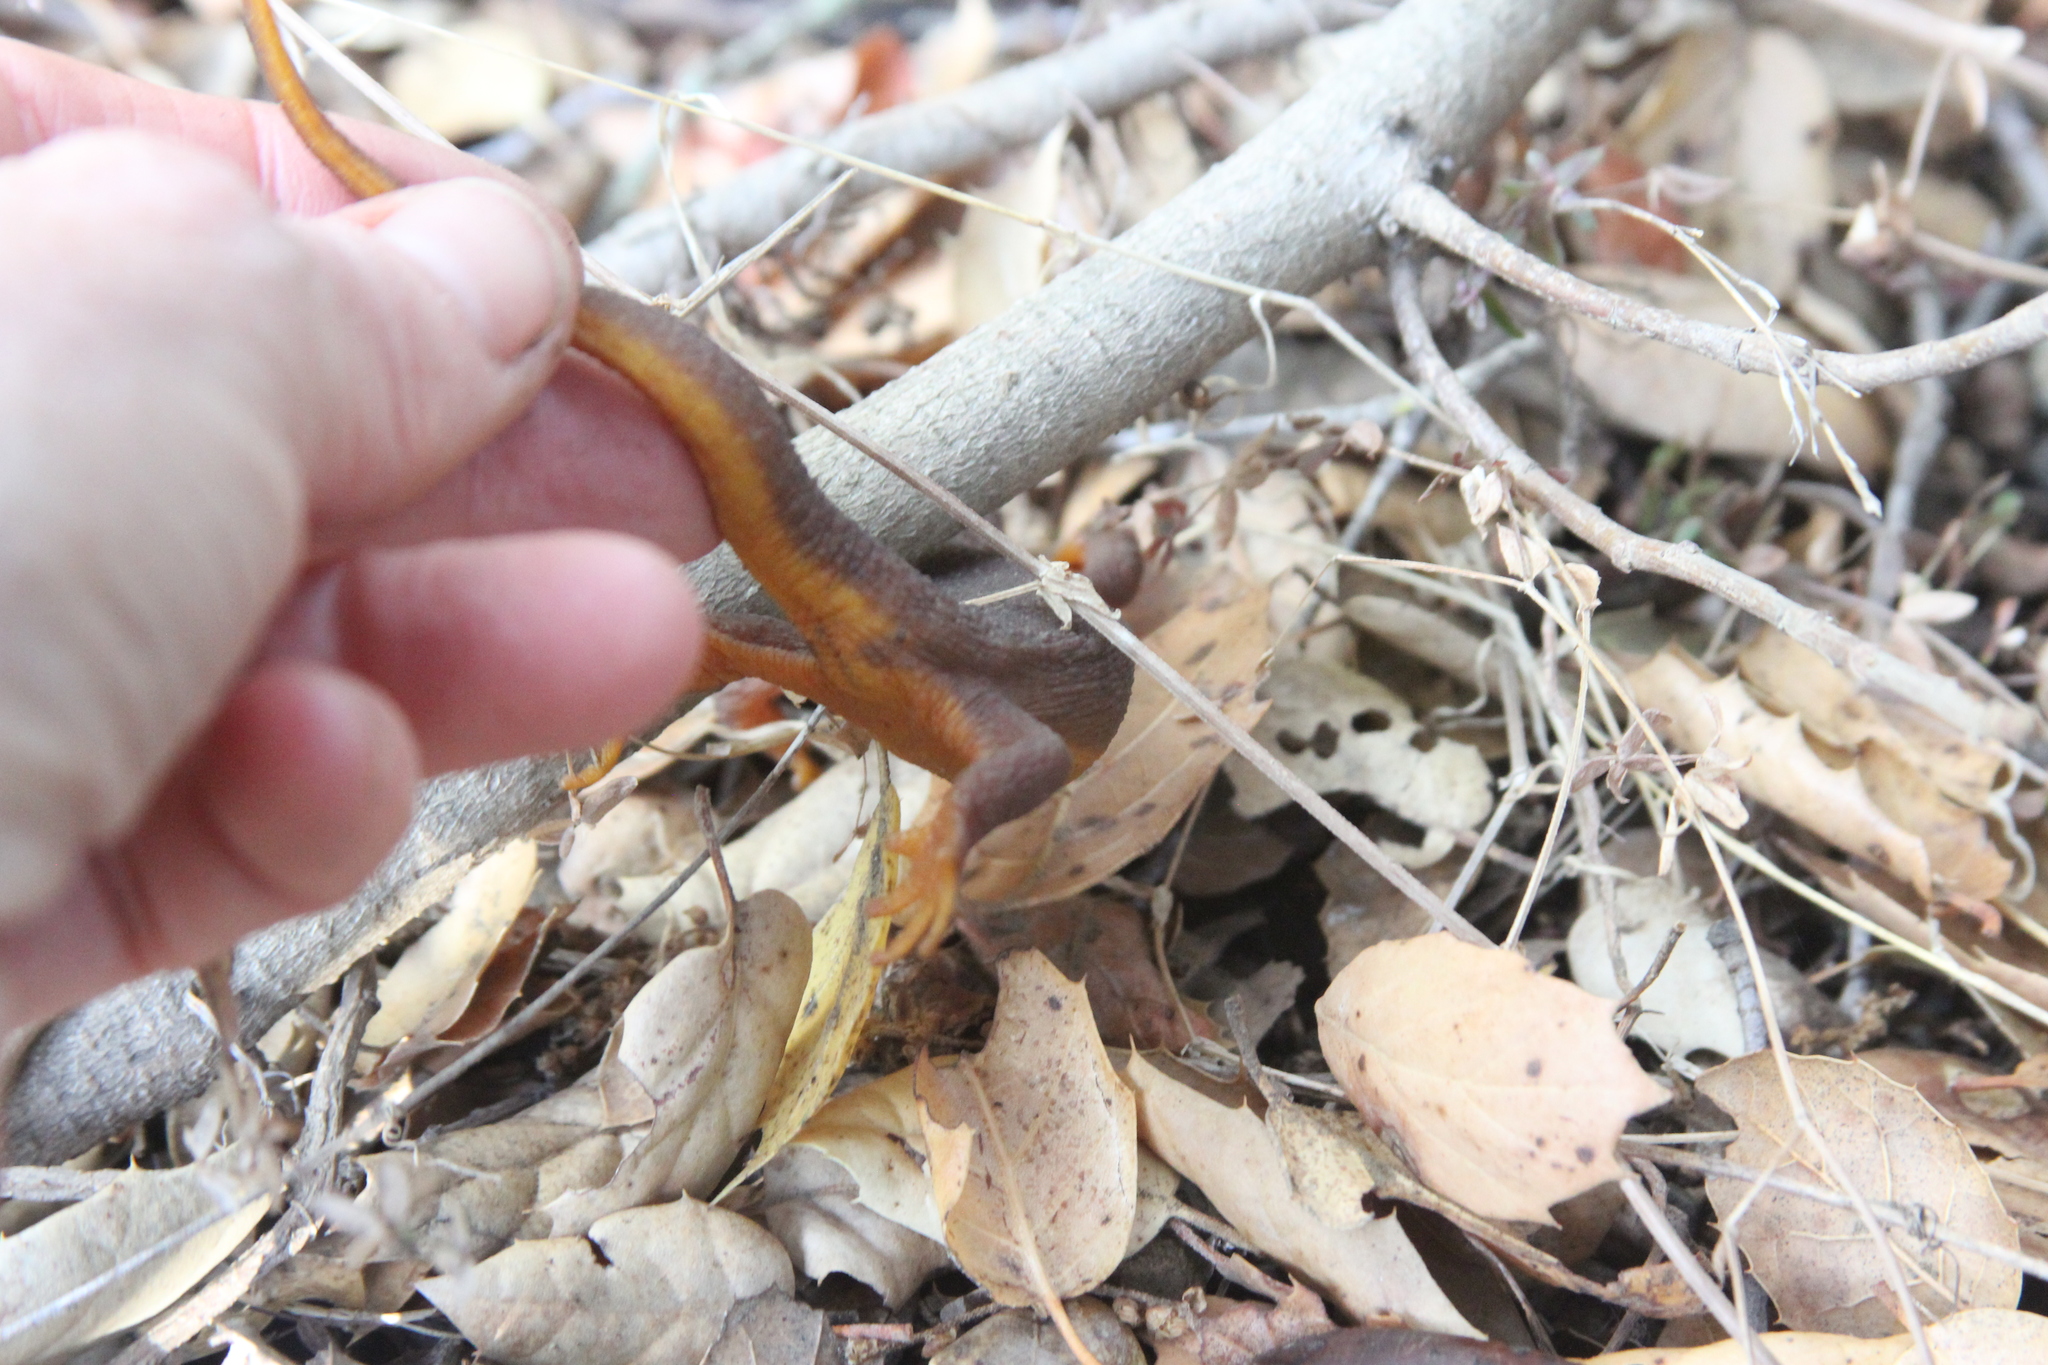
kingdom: Animalia
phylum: Chordata
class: Amphibia
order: Caudata
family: Salamandridae
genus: Taricha
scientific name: Taricha torosa
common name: California newt
